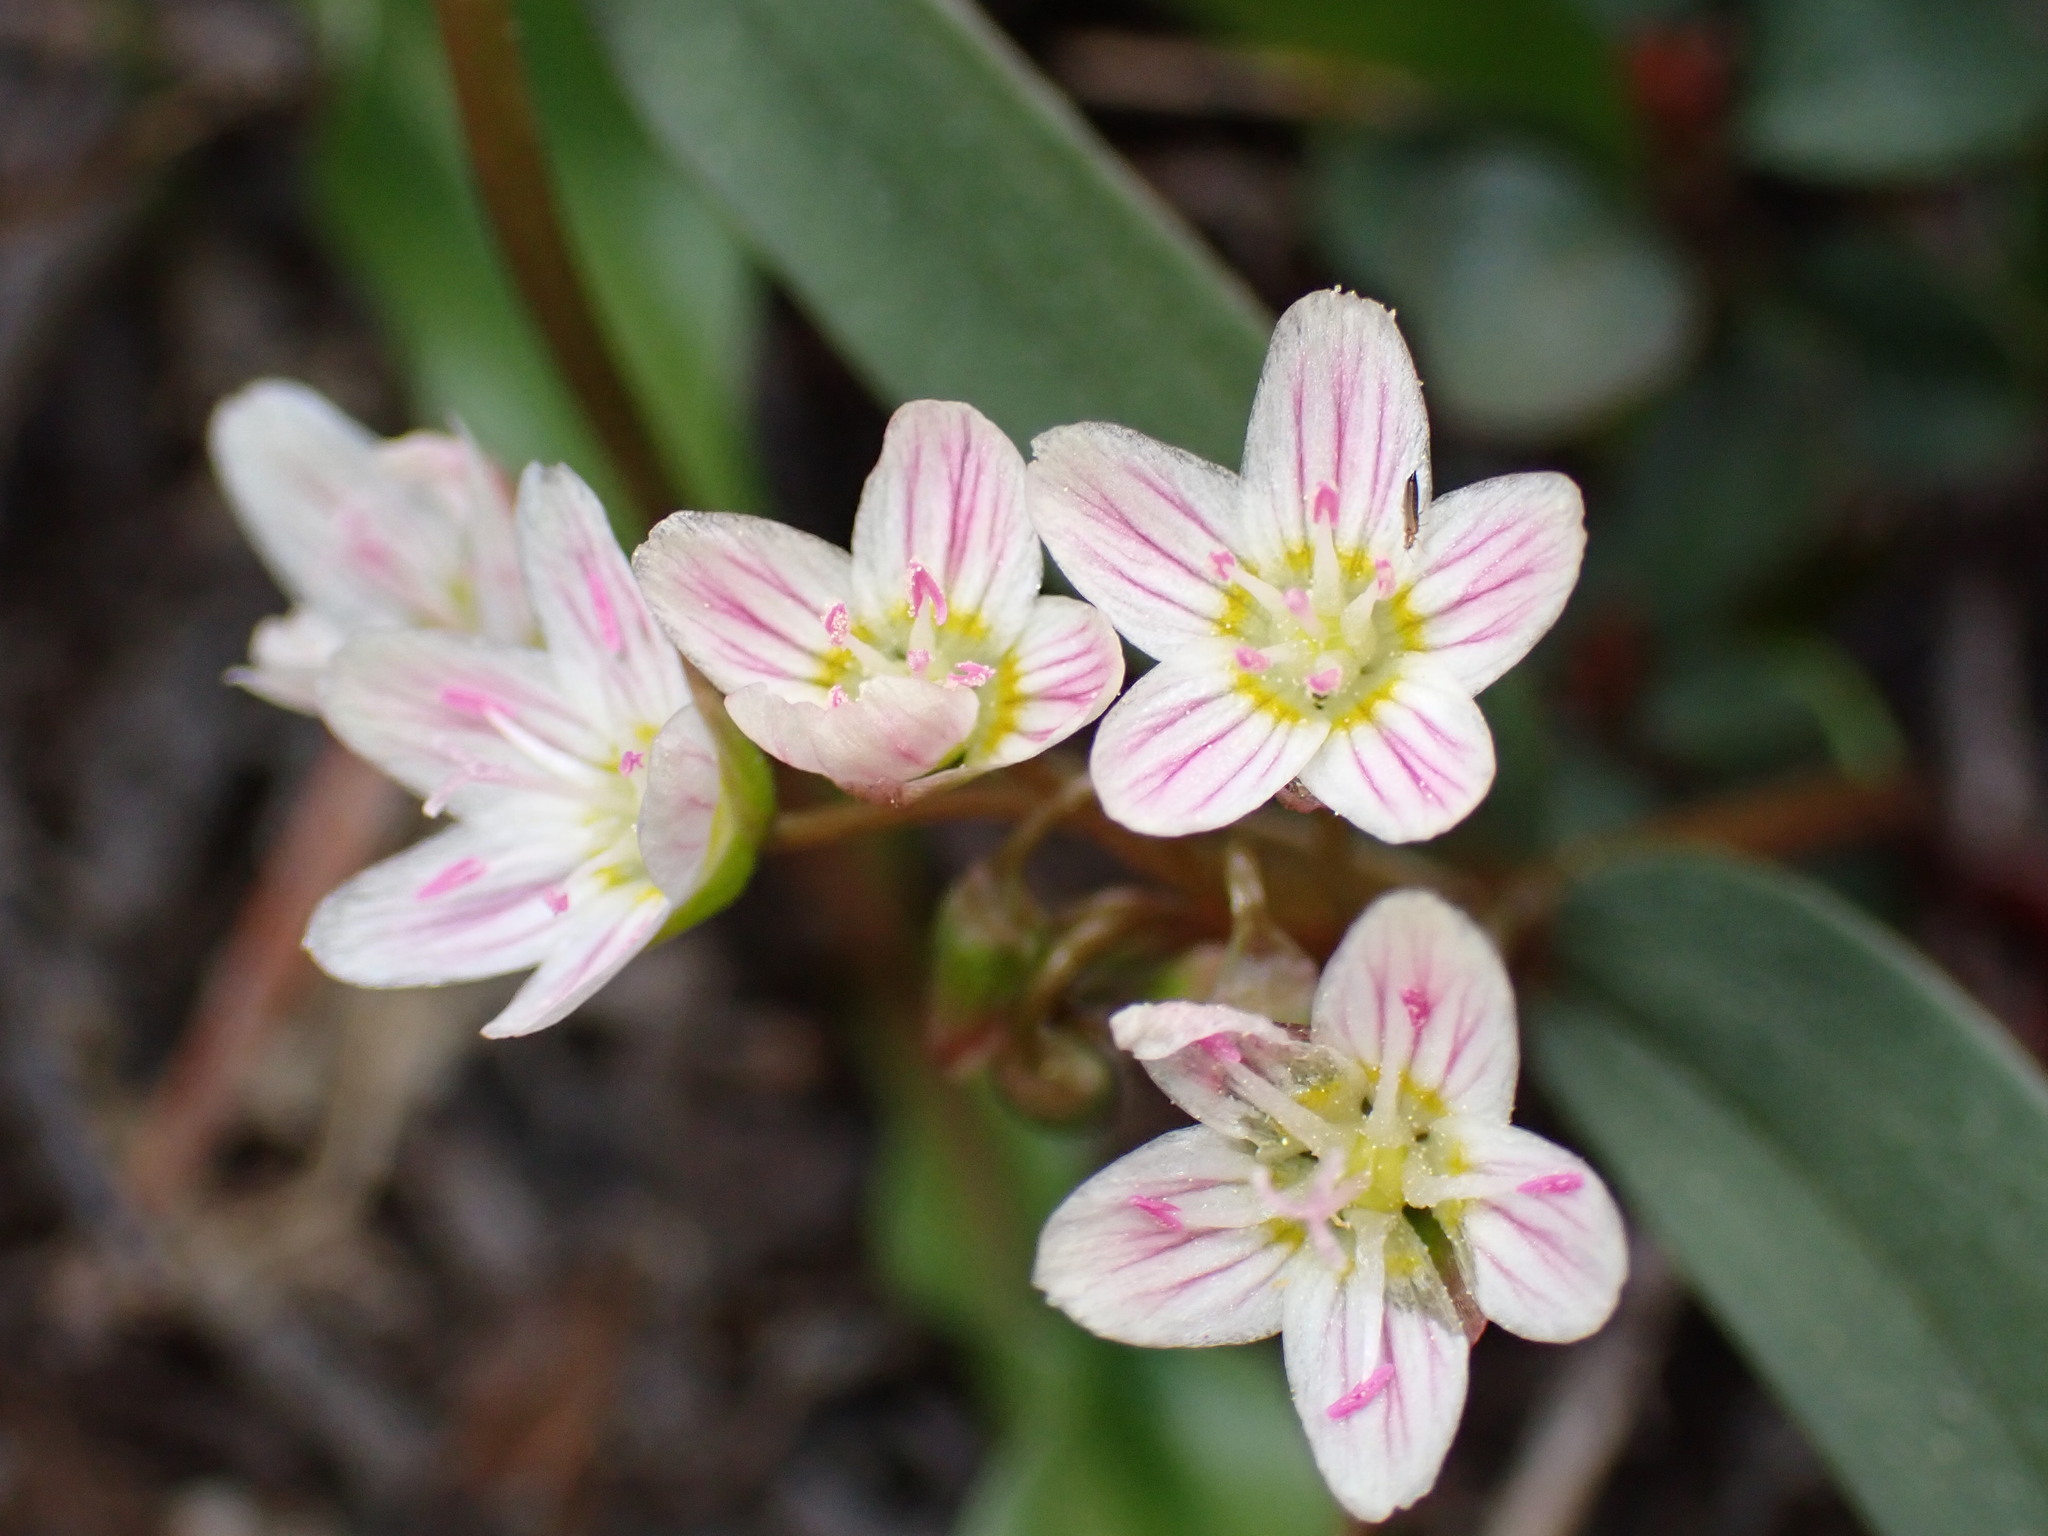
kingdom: Plantae
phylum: Tracheophyta
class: Magnoliopsida
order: Caryophyllales
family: Montiaceae
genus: Claytonia
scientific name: Claytonia lanceolata
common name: Western spring-beauty
